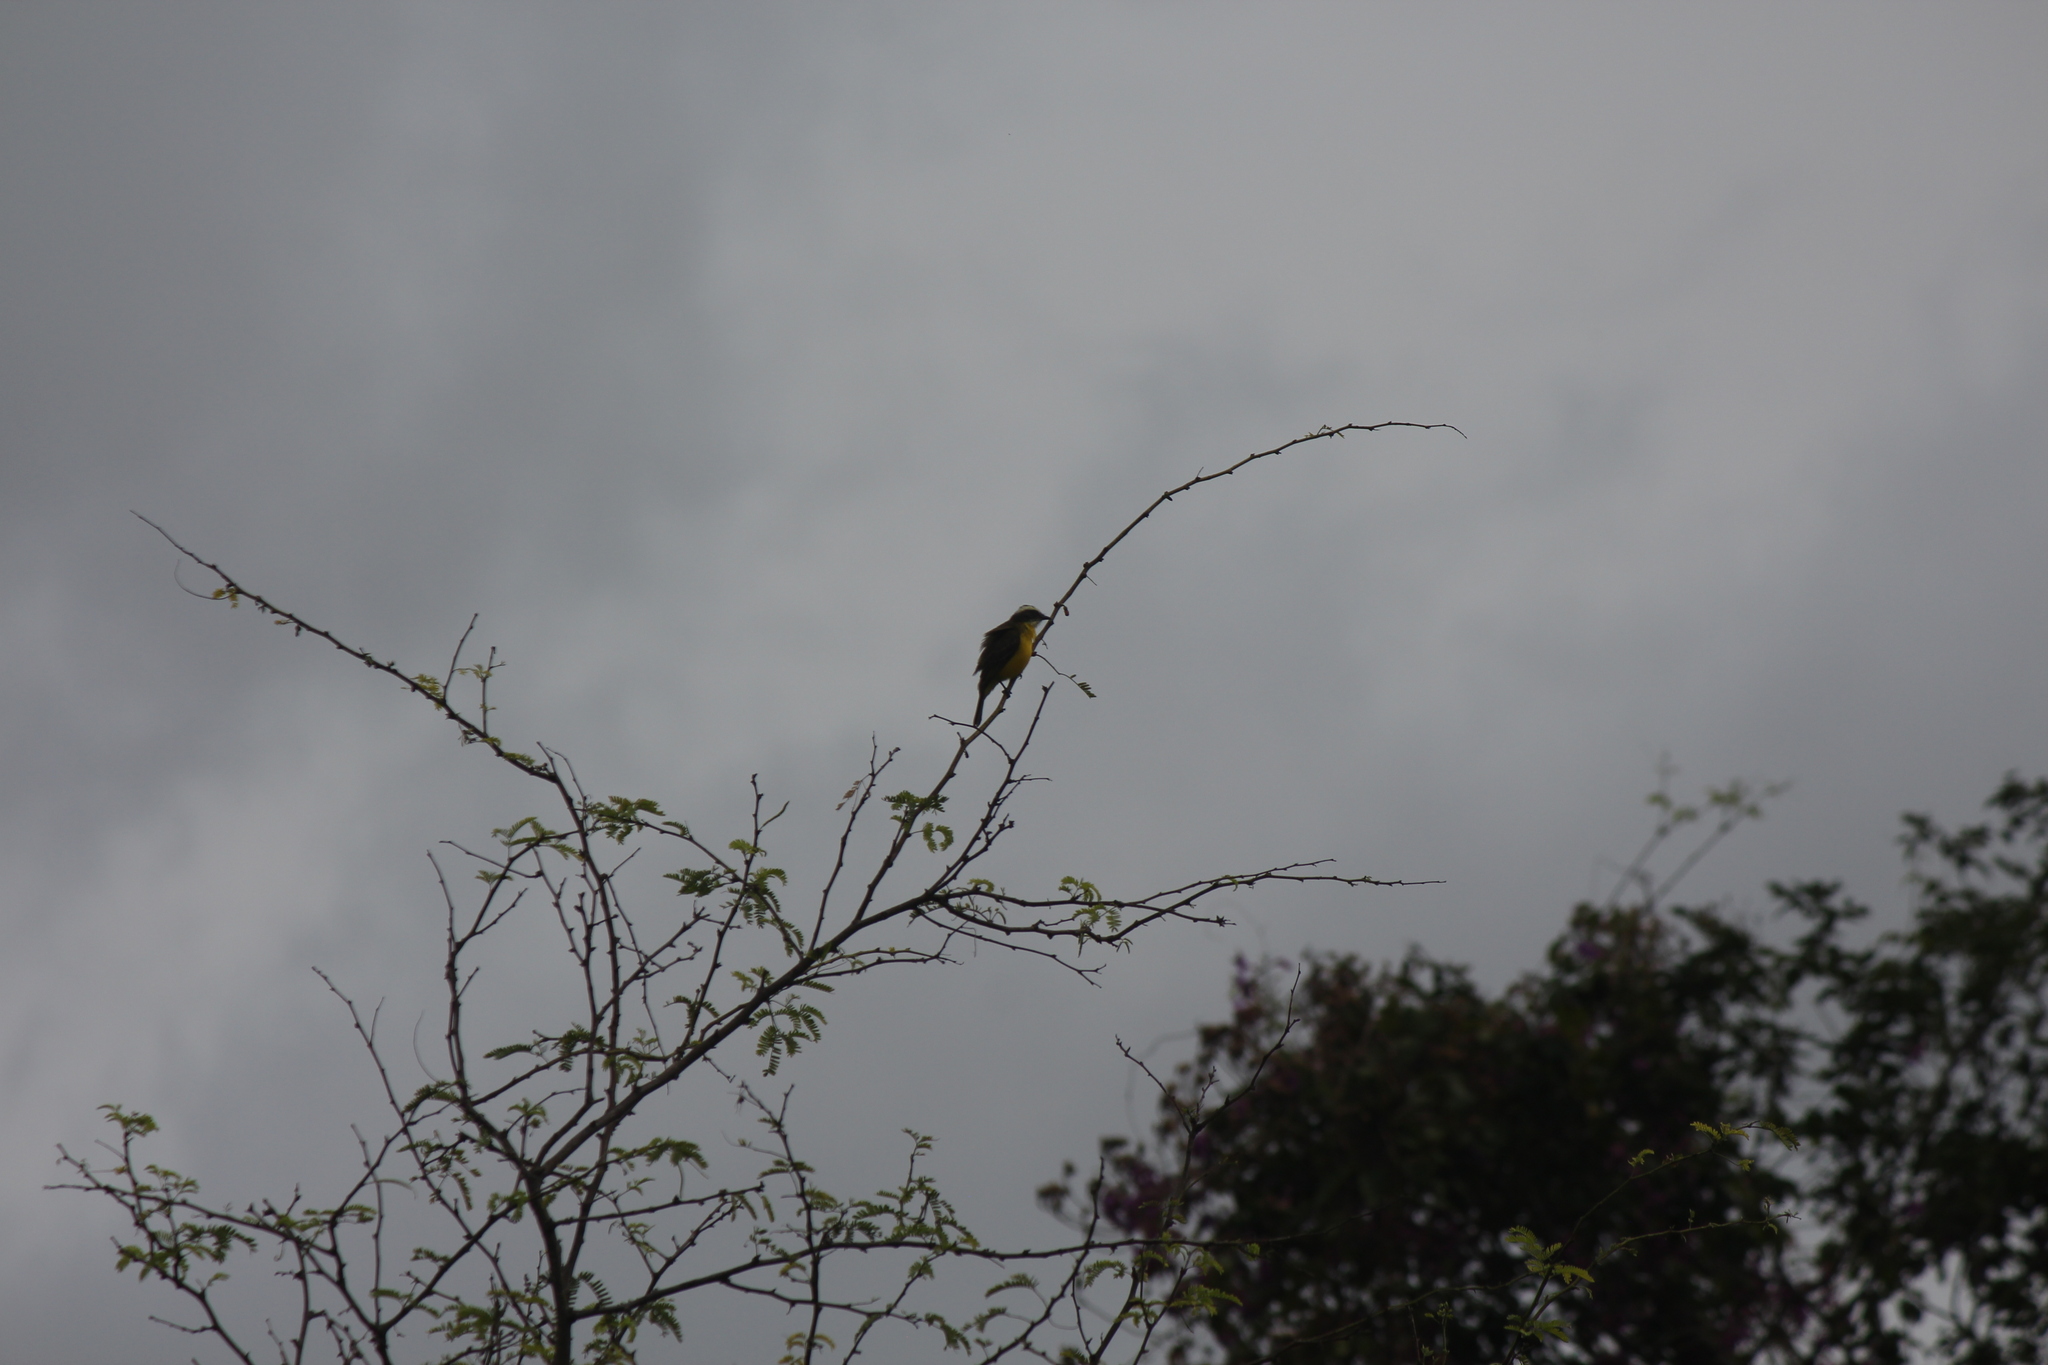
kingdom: Animalia
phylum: Chordata
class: Aves
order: Passeriformes
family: Tyrannidae
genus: Myiozetetes
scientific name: Myiozetetes similis
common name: Social flycatcher
